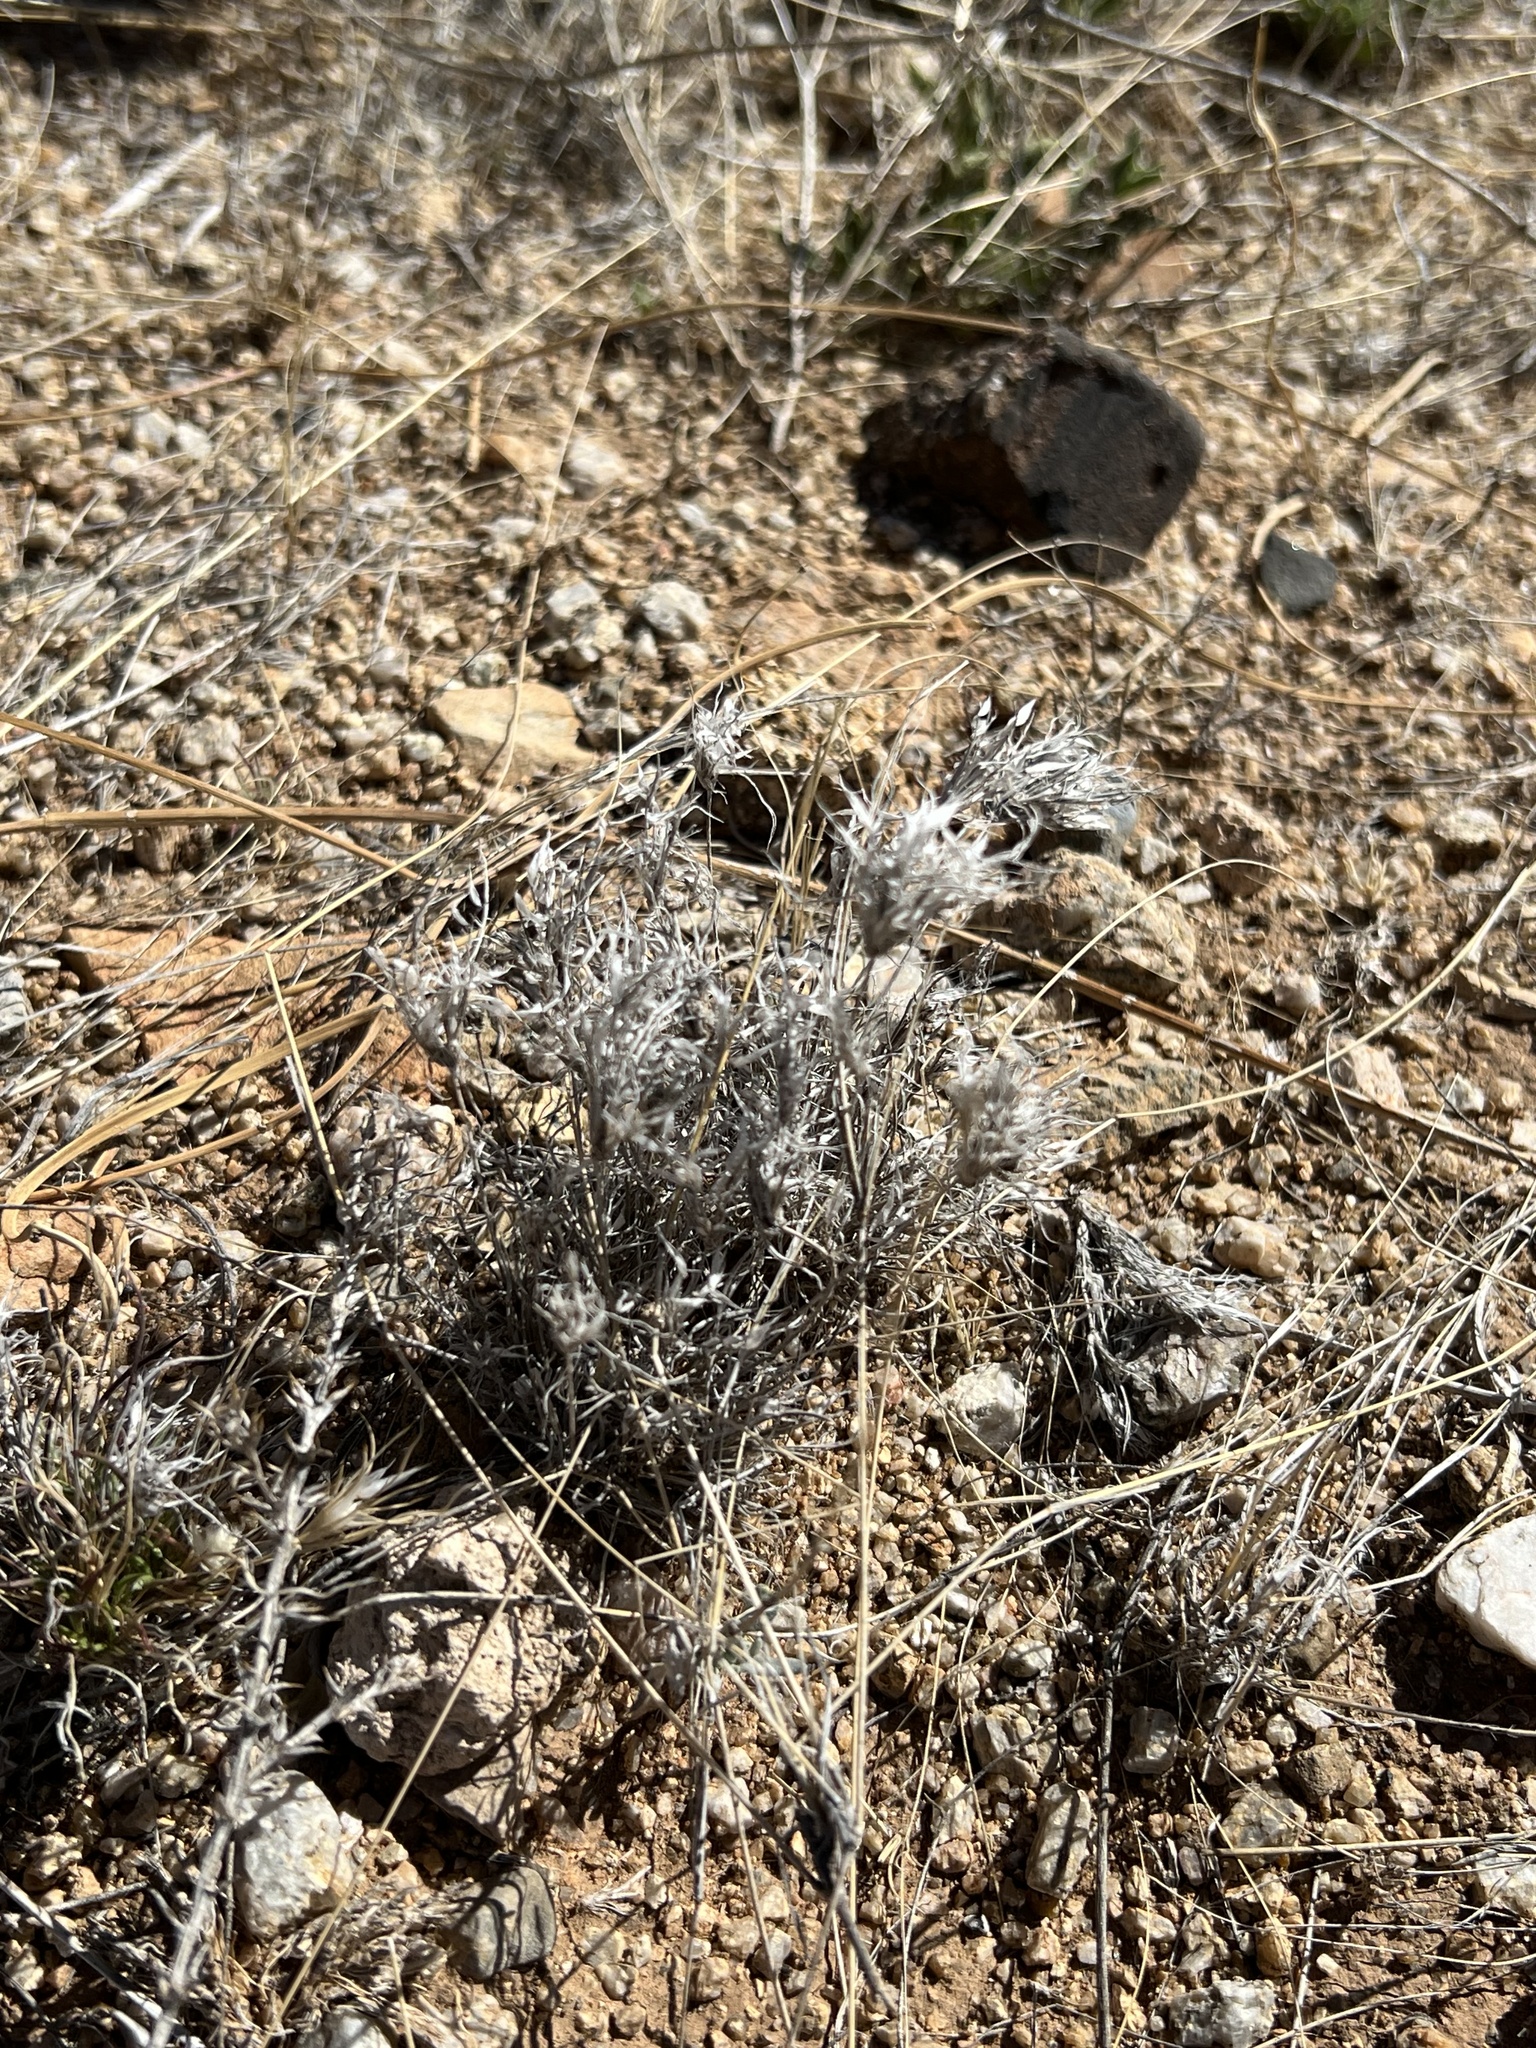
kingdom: Plantae
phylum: Tracheophyta
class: Liliopsida
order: Poales
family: Poaceae
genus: Dasyochloa
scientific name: Dasyochloa pulchella
